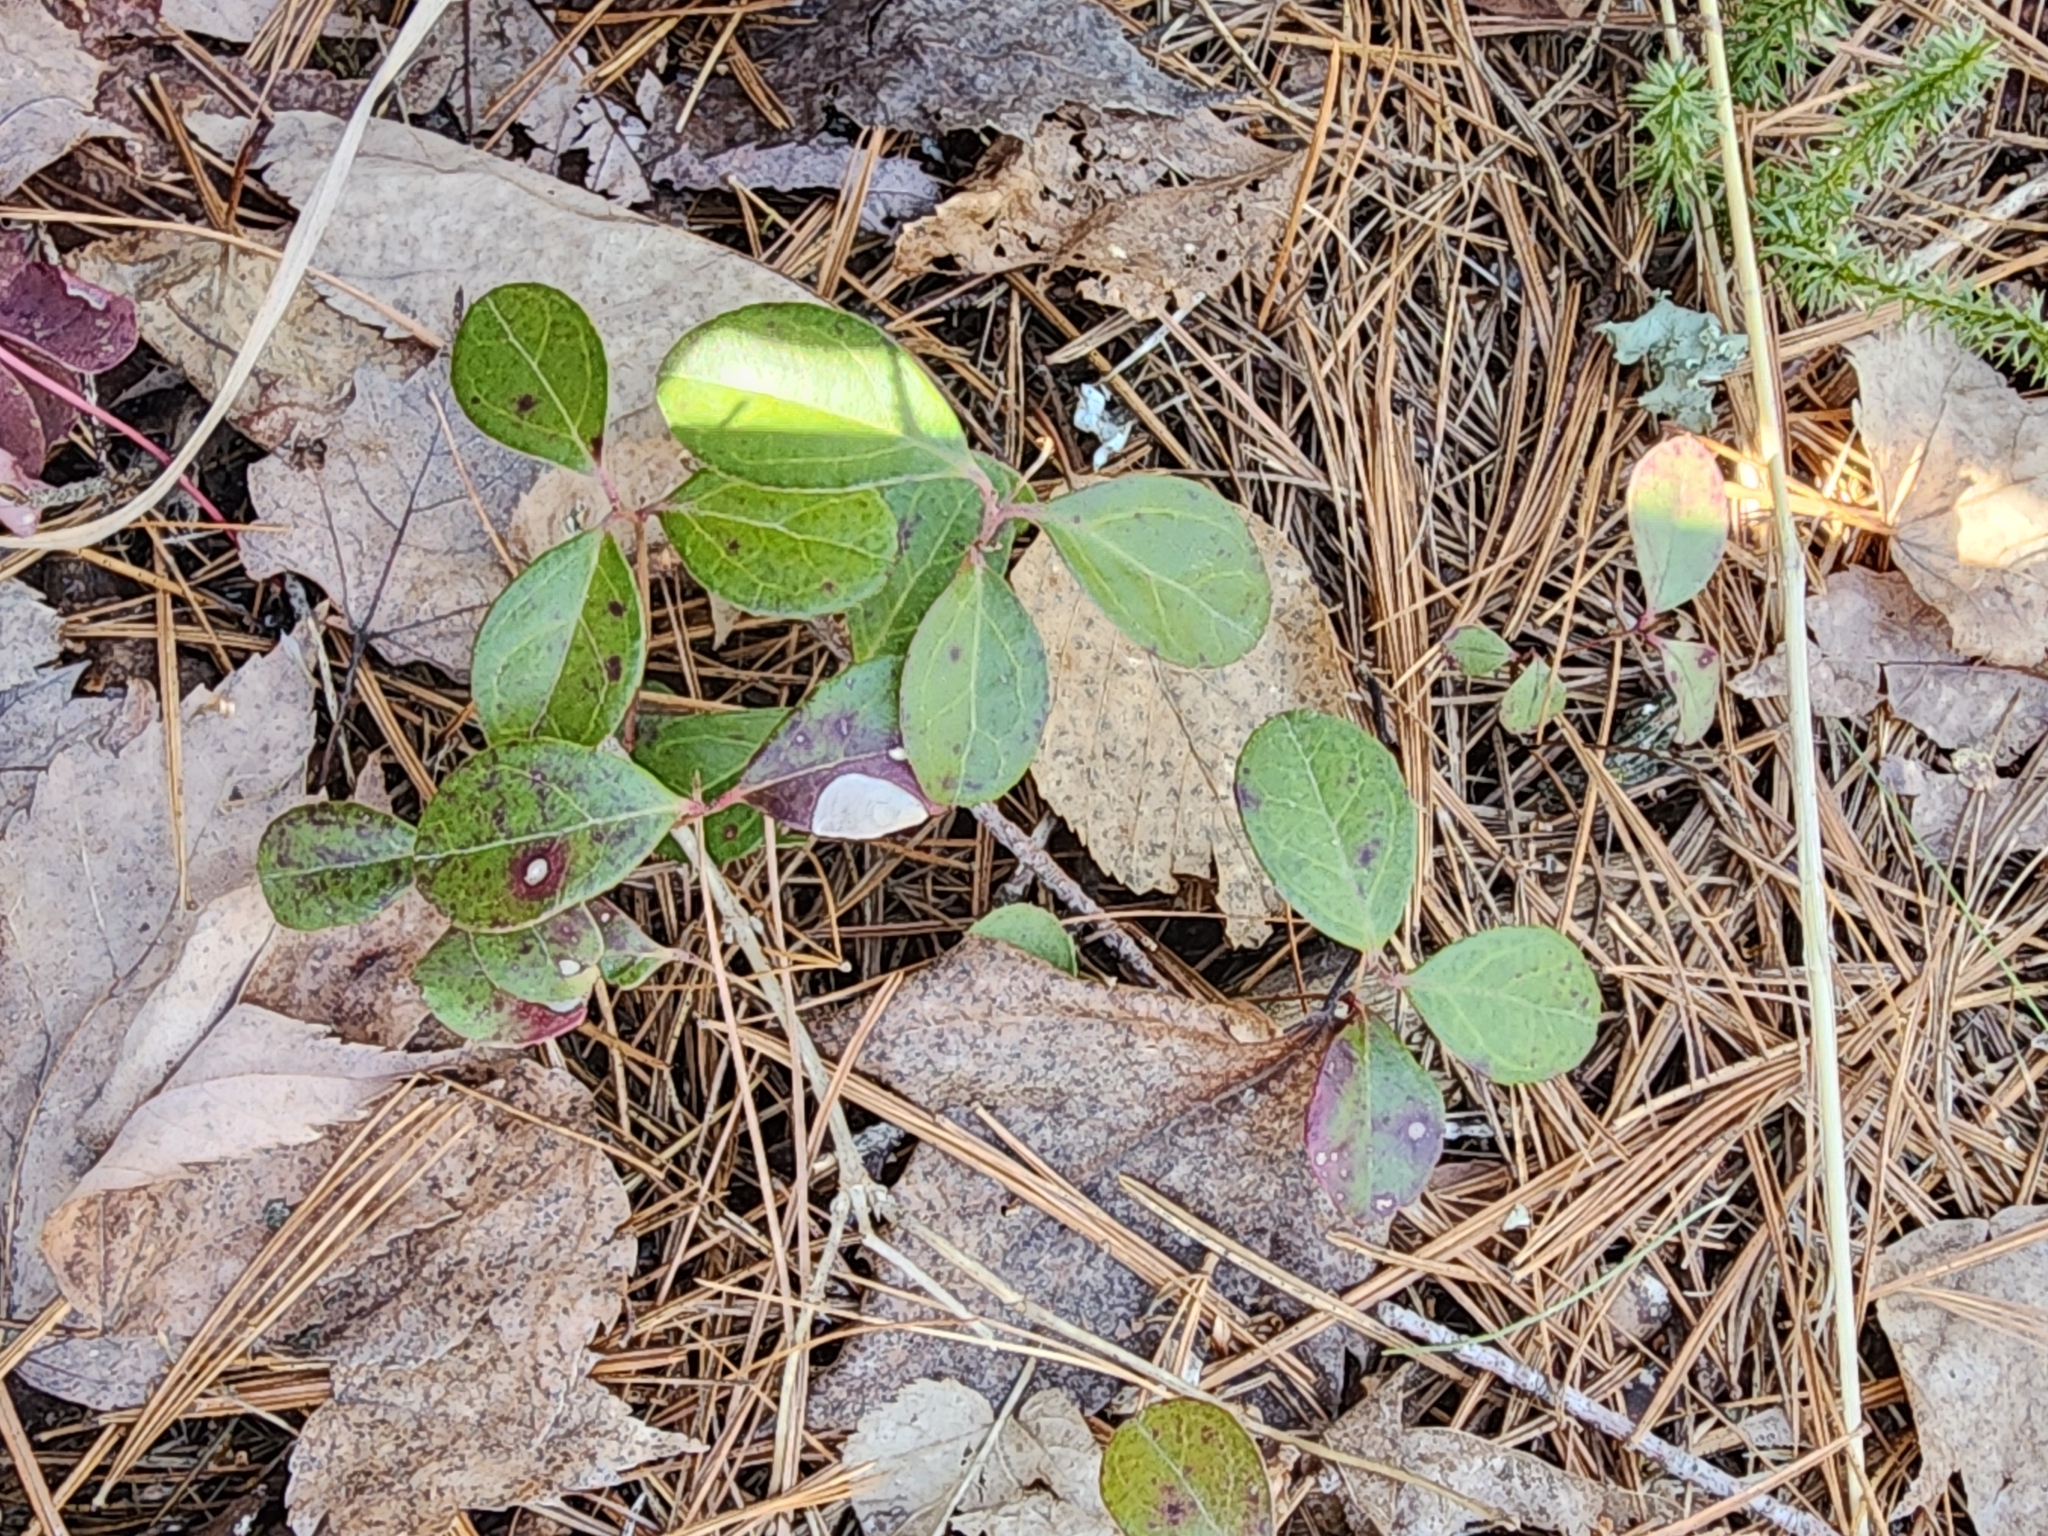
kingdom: Plantae
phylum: Tracheophyta
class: Magnoliopsida
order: Ericales
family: Ericaceae
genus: Gaultheria
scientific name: Gaultheria procumbens
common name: Checkerberry
